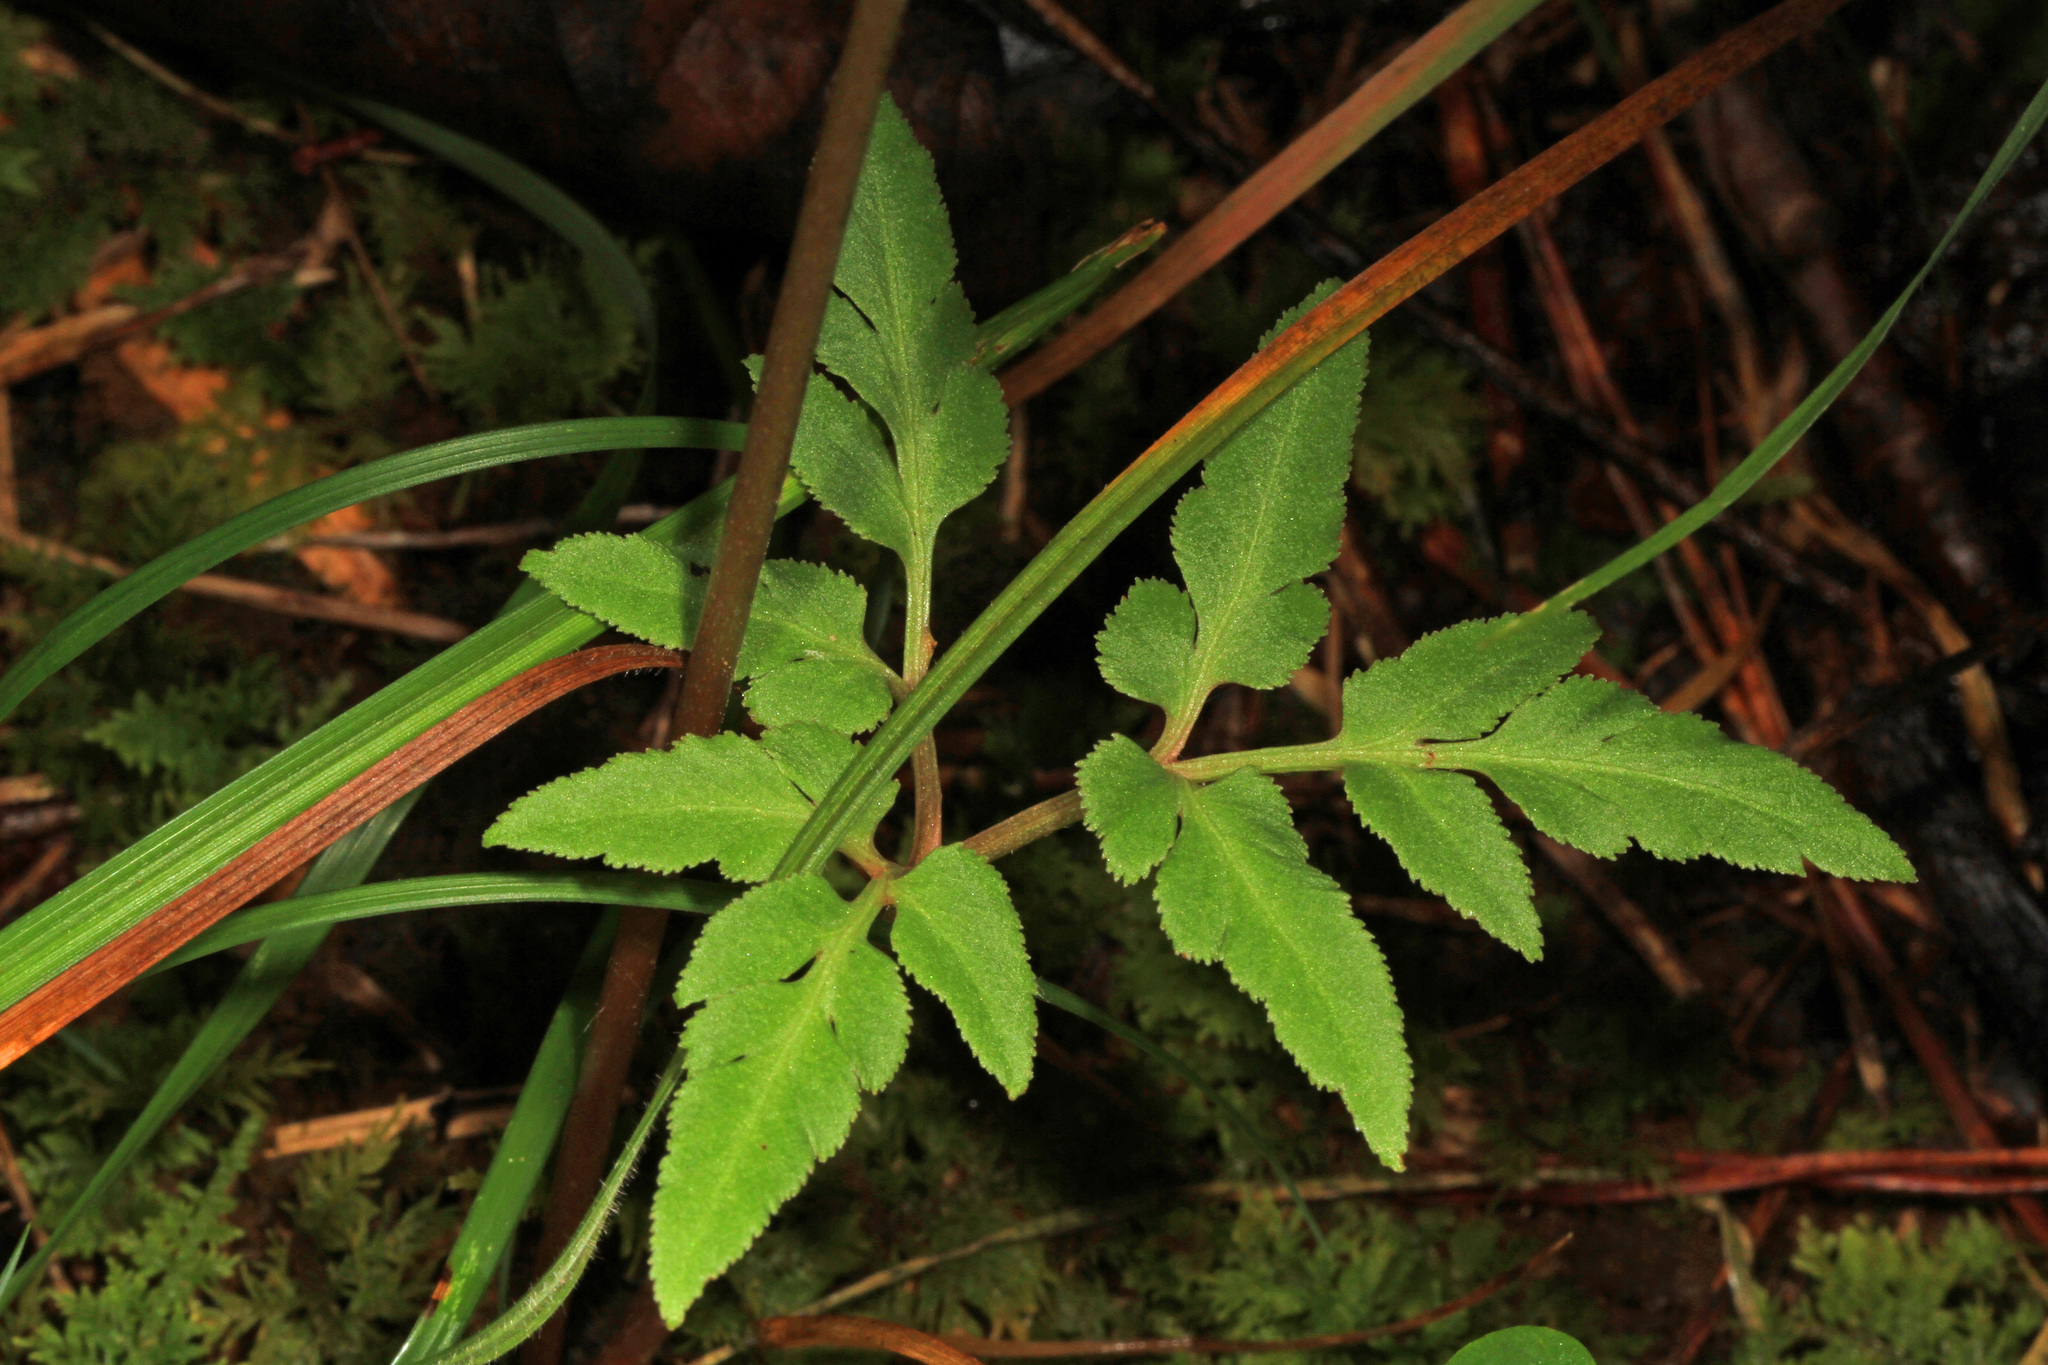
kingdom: Plantae
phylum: Tracheophyta
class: Polypodiopsida
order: Ophioglossales
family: Ophioglossaceae
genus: Botrypus
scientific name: Botrypus virginianus
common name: Common grapefern
